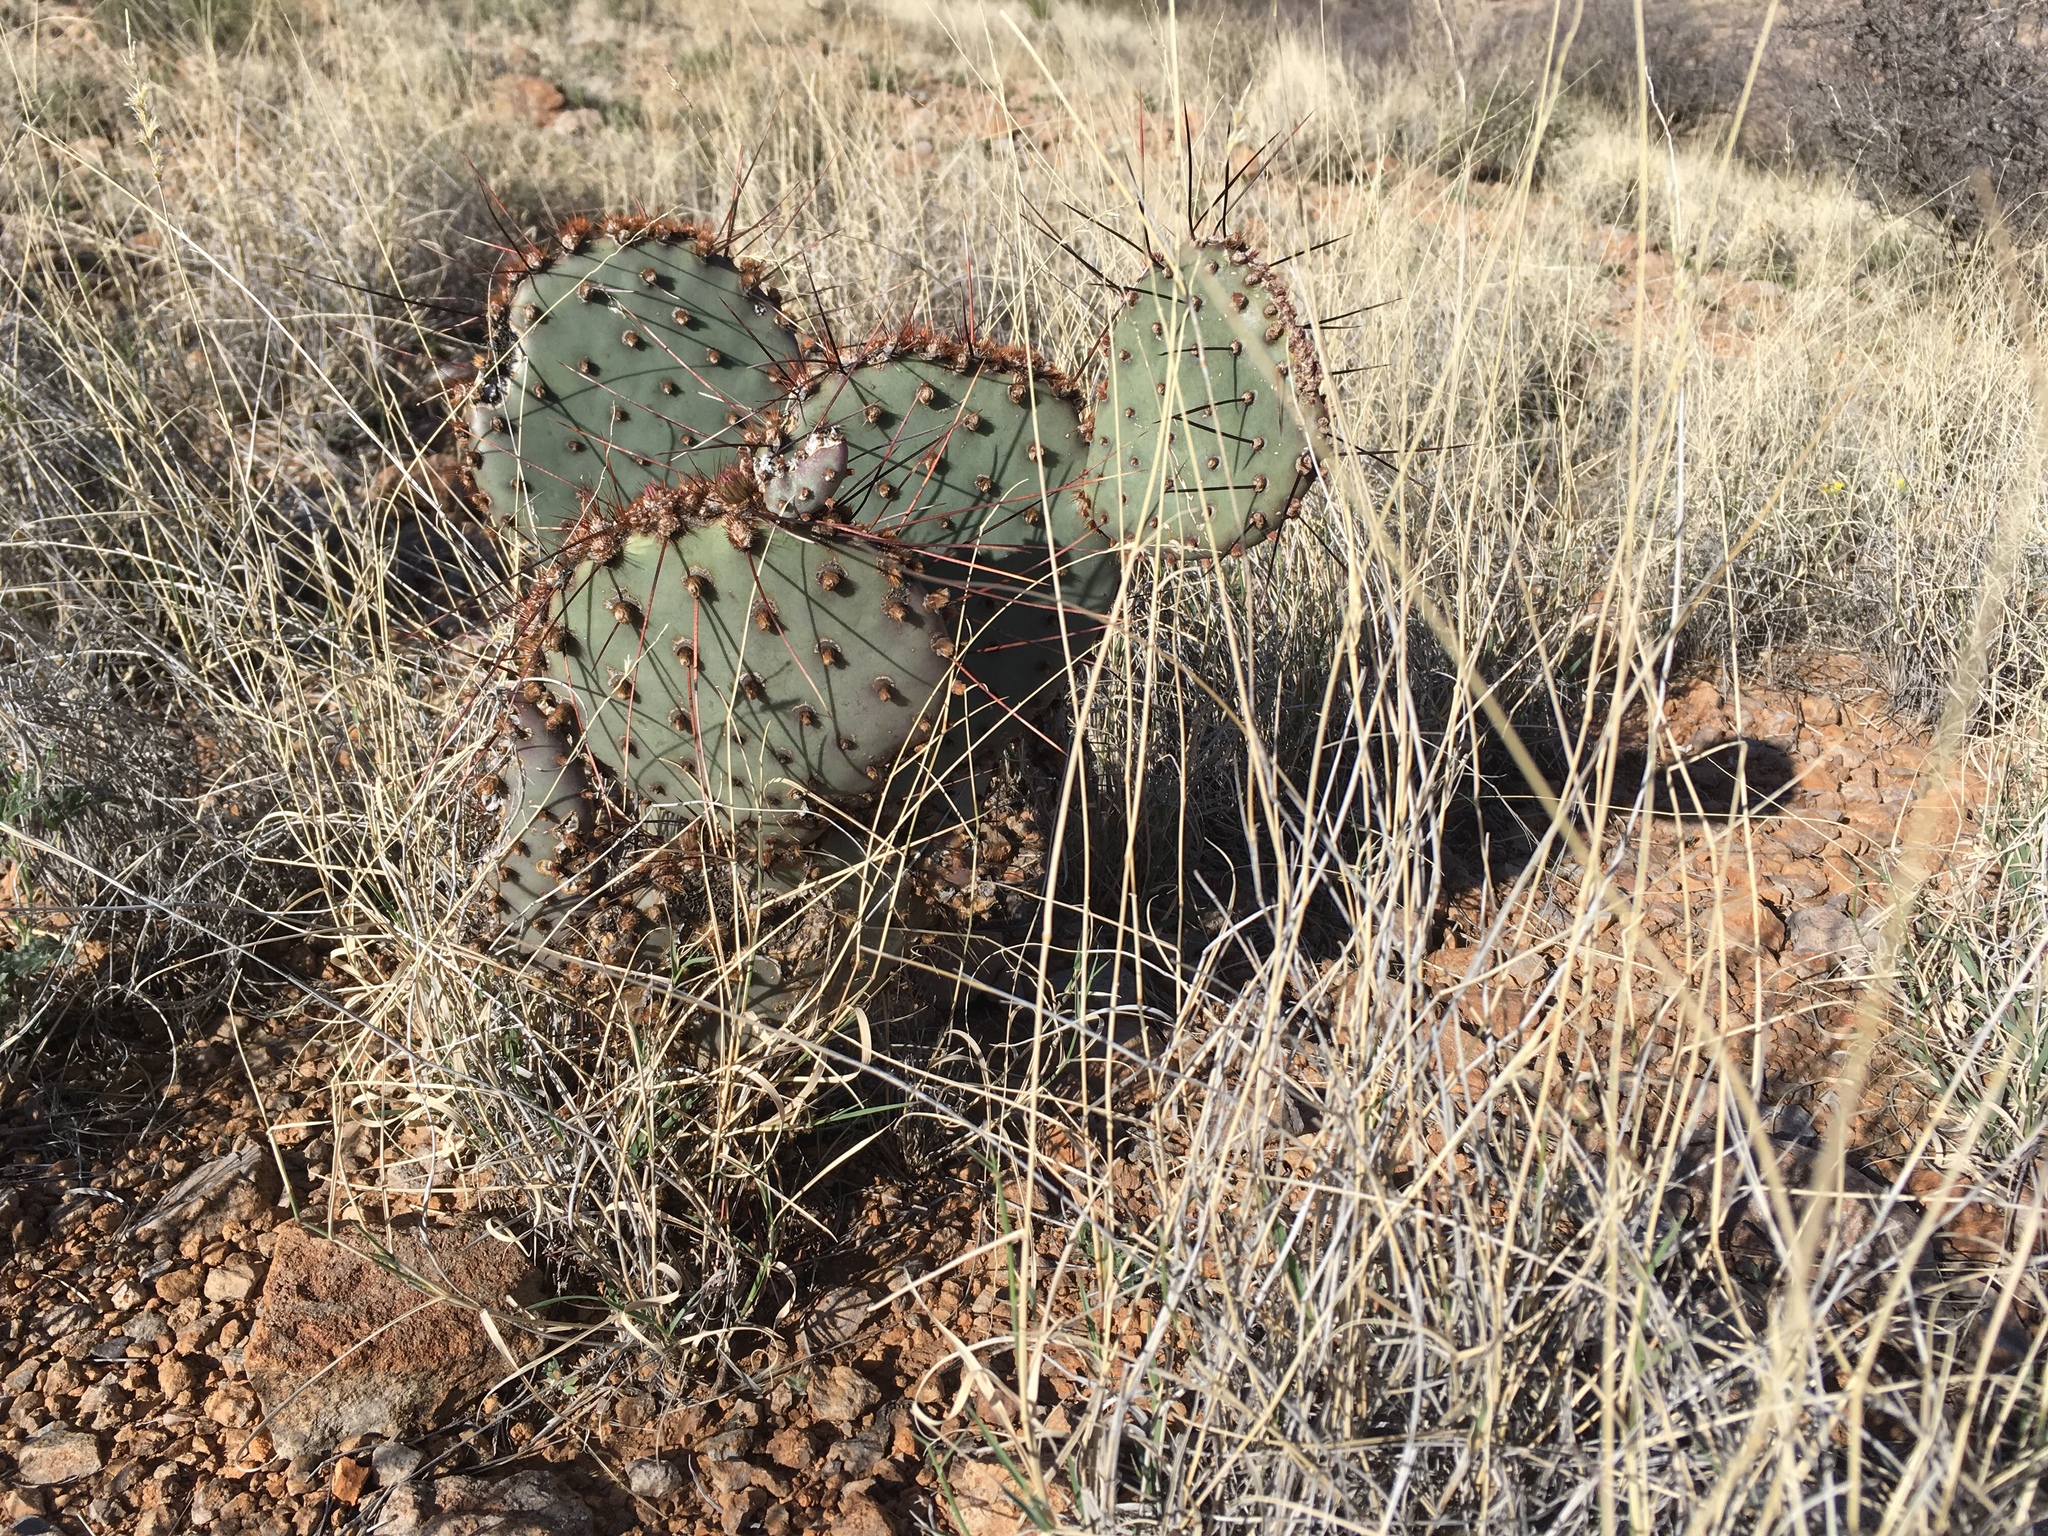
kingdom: Plantae
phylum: Tracheophyta
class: Magnoliopsida
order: Caryophyllales
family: Cactaceae
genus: Opuntia
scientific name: Opuntia macrocentra
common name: Purple prickly-pear
